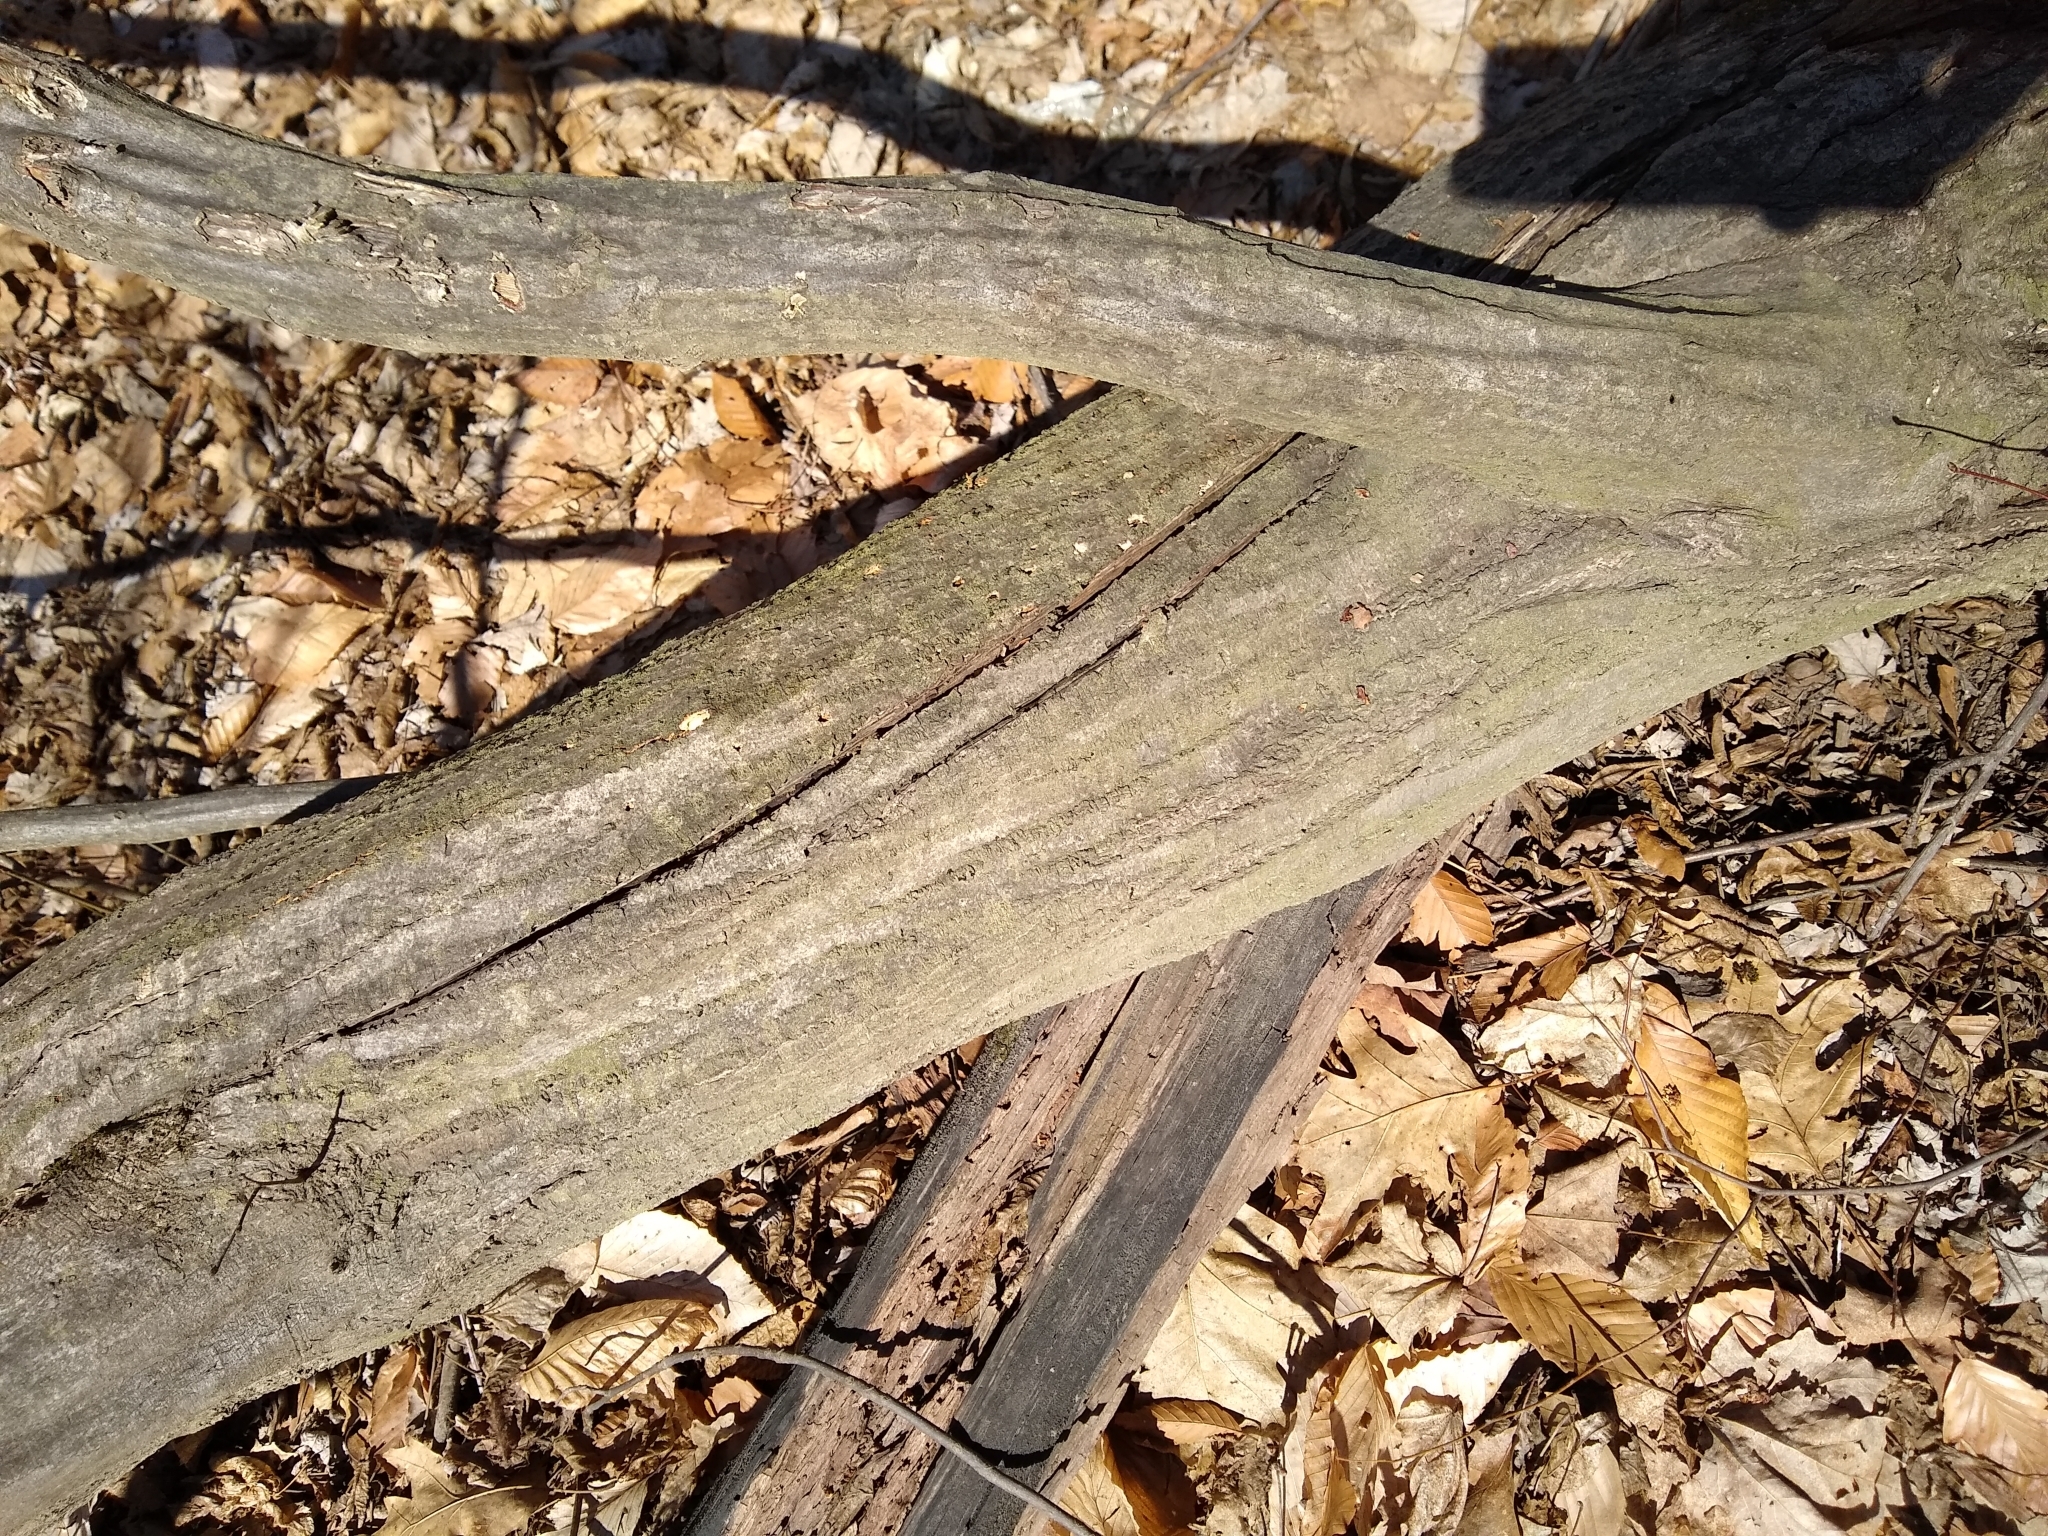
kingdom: Plantae
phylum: Tracheophyta
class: Magnoliopsida
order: Fagales
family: Betulaceae
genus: Carpinus
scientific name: Carpinus caroliniana
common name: American hornbeam
